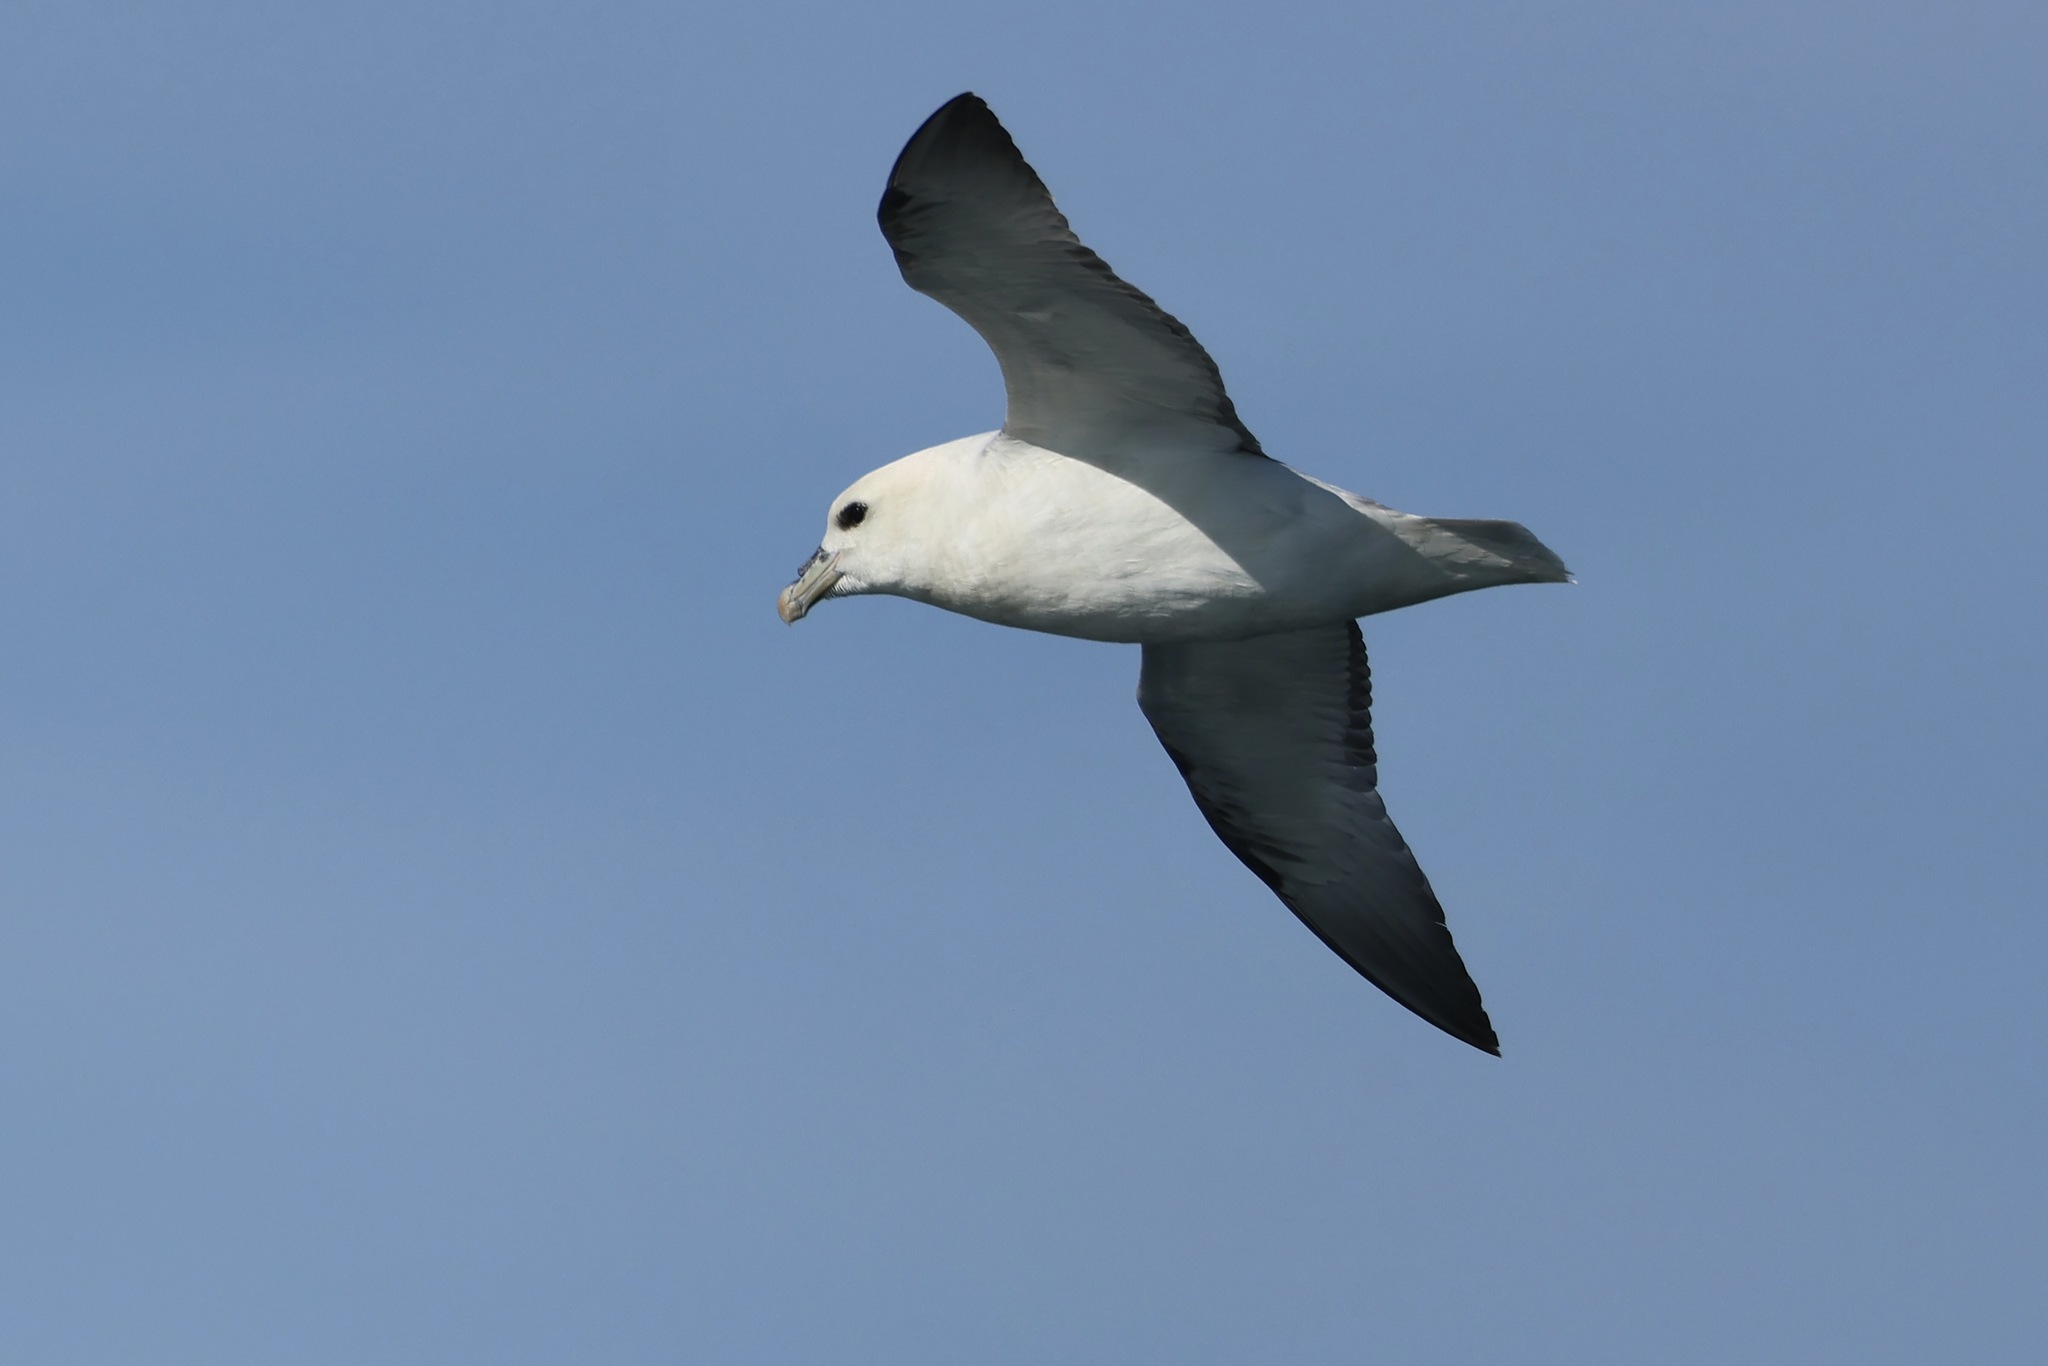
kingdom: Animalia
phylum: Chordata
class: Aves
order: Procellariiformes
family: Procellariidae
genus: Fulmarus
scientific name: Fulmarus glacialis
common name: Northern fulmar
